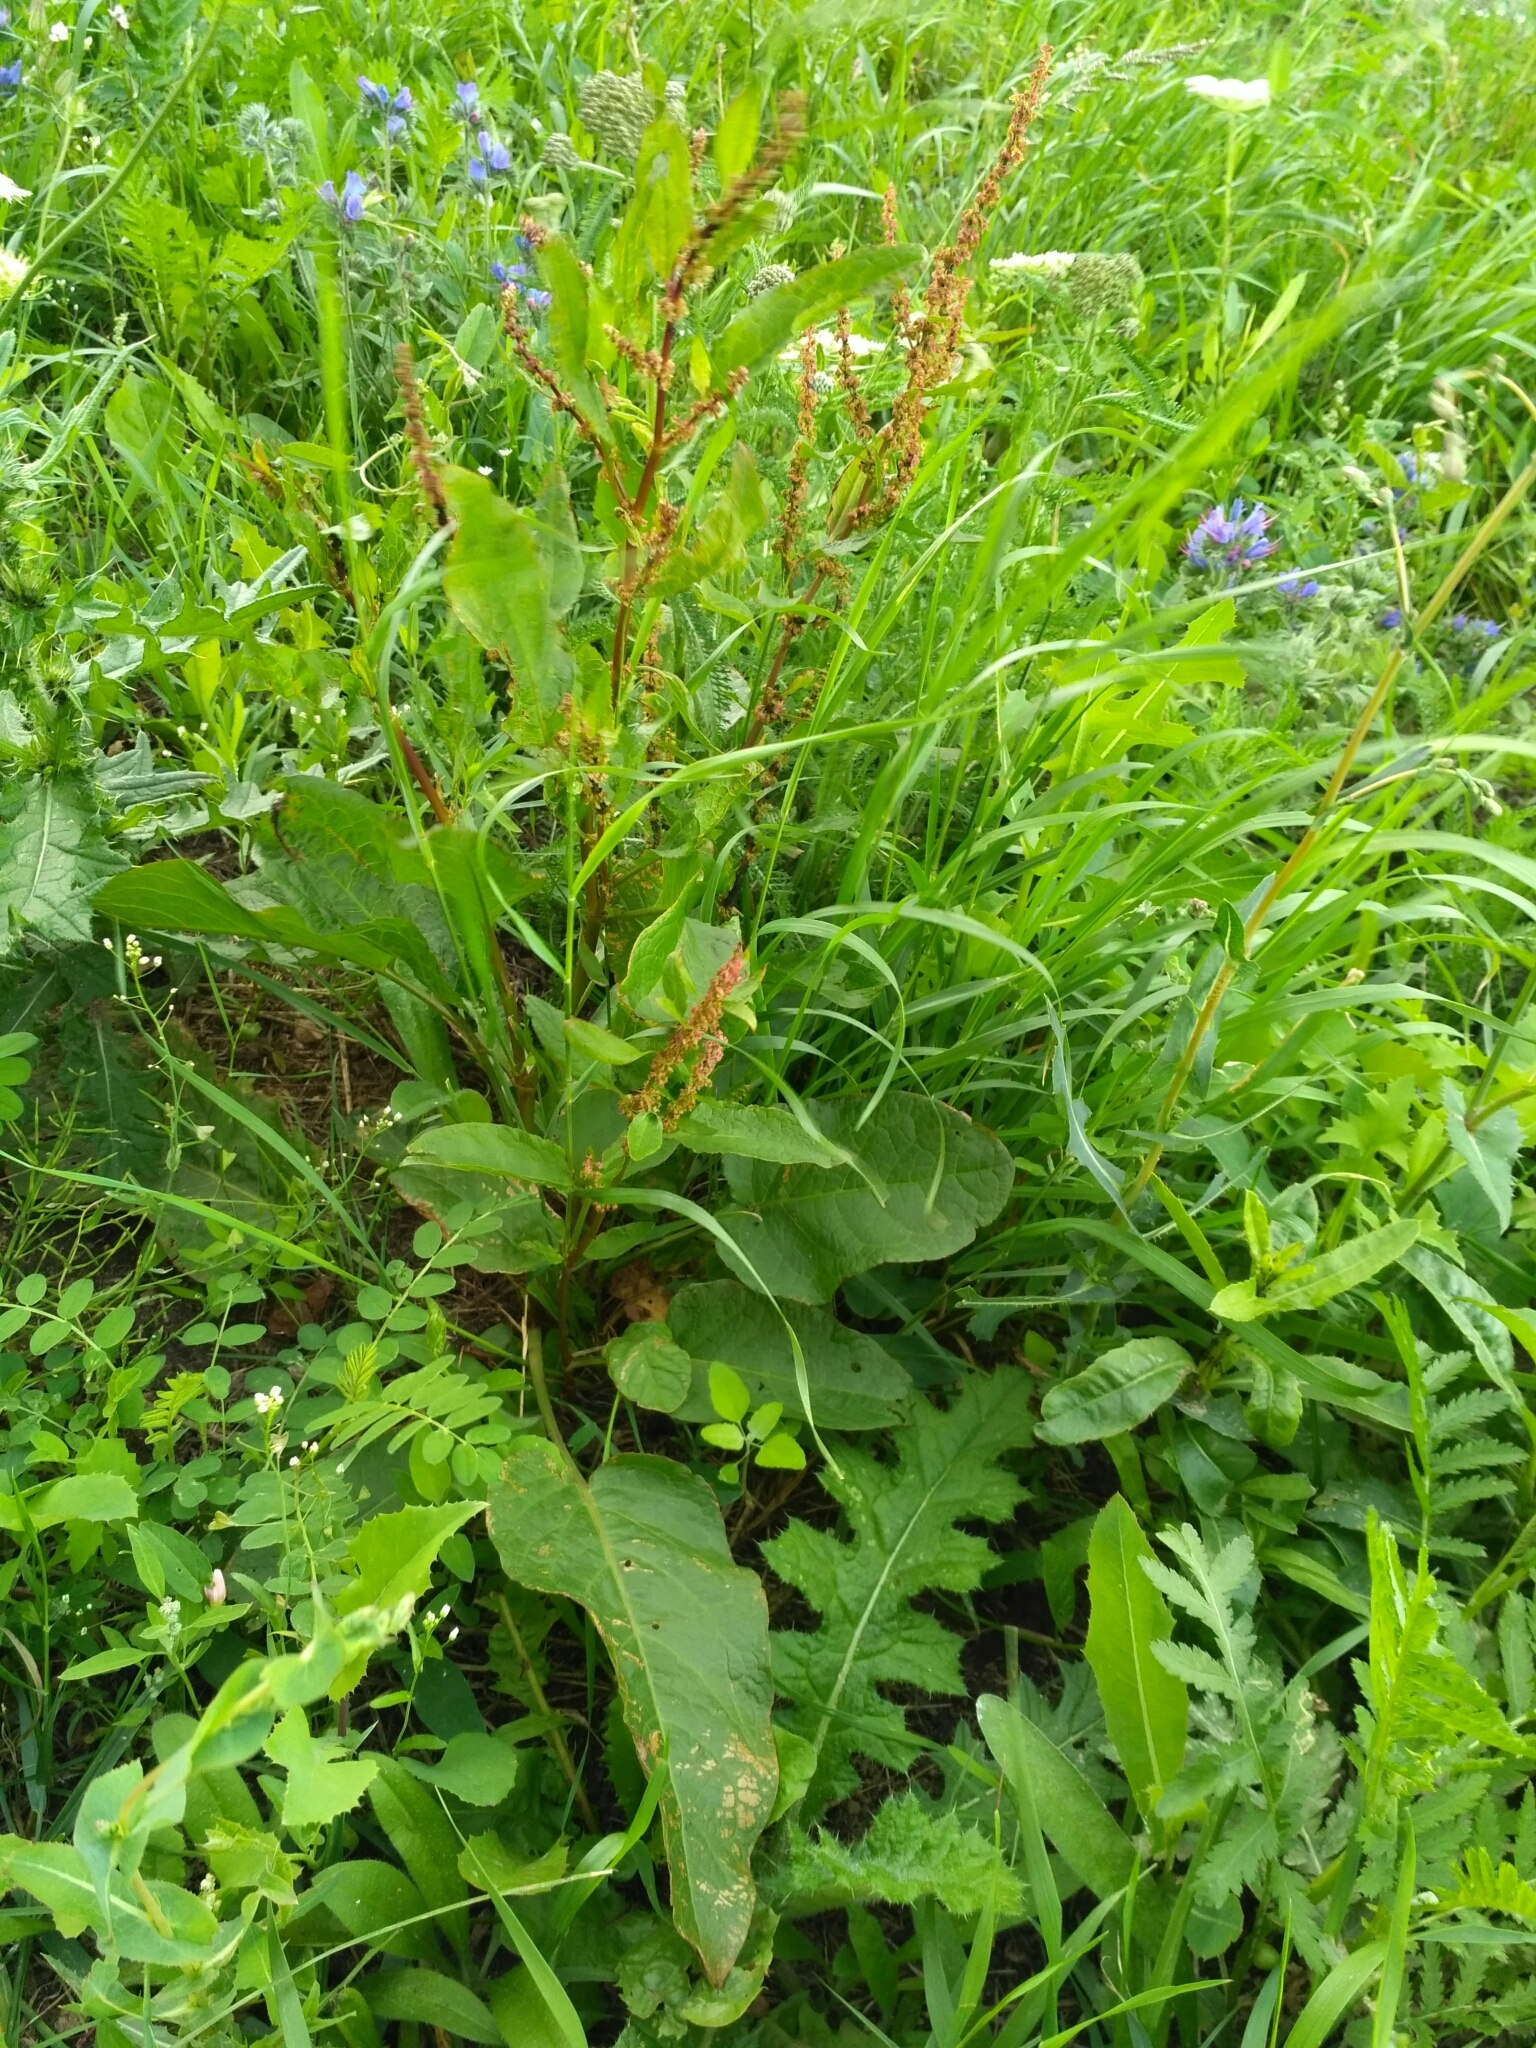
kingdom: Plantae
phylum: Tracheophyta
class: Magnoliopsida
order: Caryophyllales
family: Polygonaceae
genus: Rumex
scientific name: Rumex obtusifolius
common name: Bitter dock
